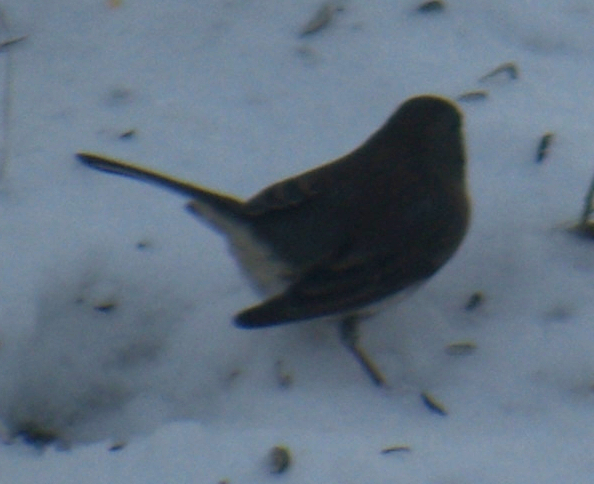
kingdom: Animalia
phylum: Chordata
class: Aves
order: Passeriformes
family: Passerellidae
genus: Junco
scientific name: Junco hyemalis
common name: Dark-eyed junco
